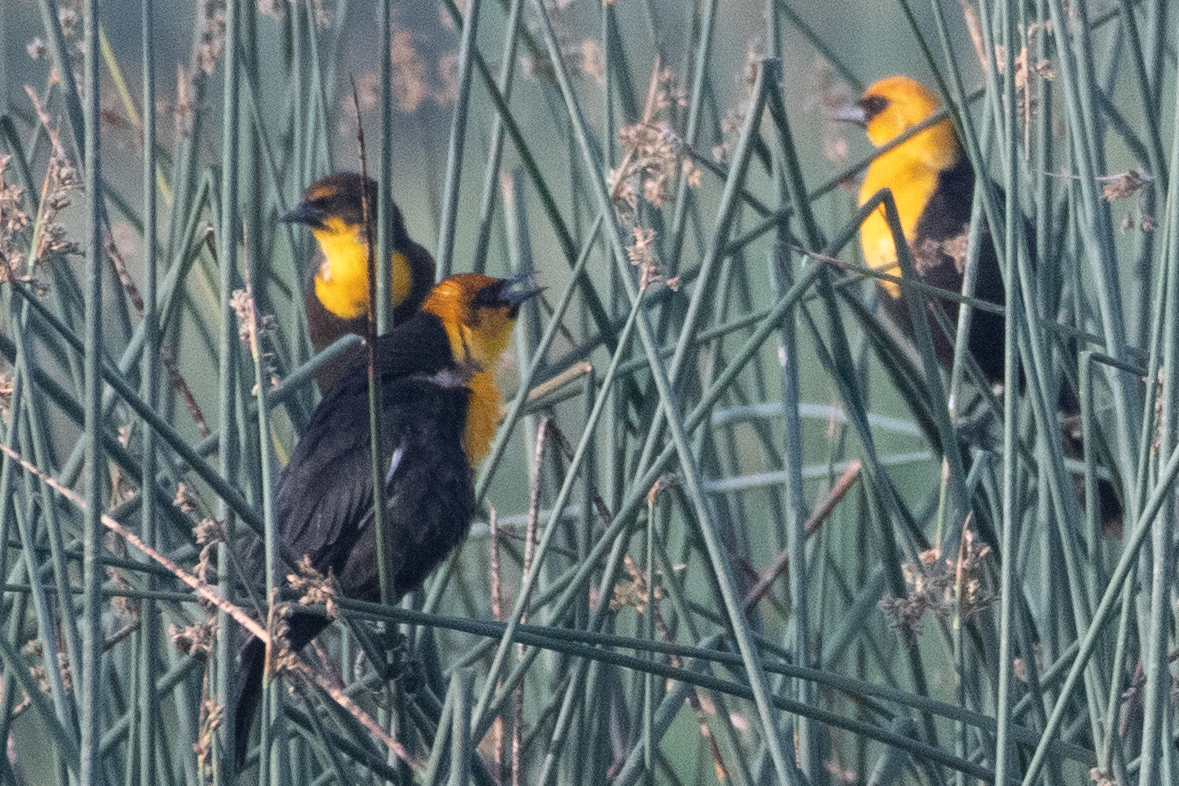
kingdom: Animalia
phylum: Chordata
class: Aves
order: Passeriformes
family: Icteridae
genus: Xanthocephalus
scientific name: Xanthocephalus xanthocephalus
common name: Yellow-headed blackbird
